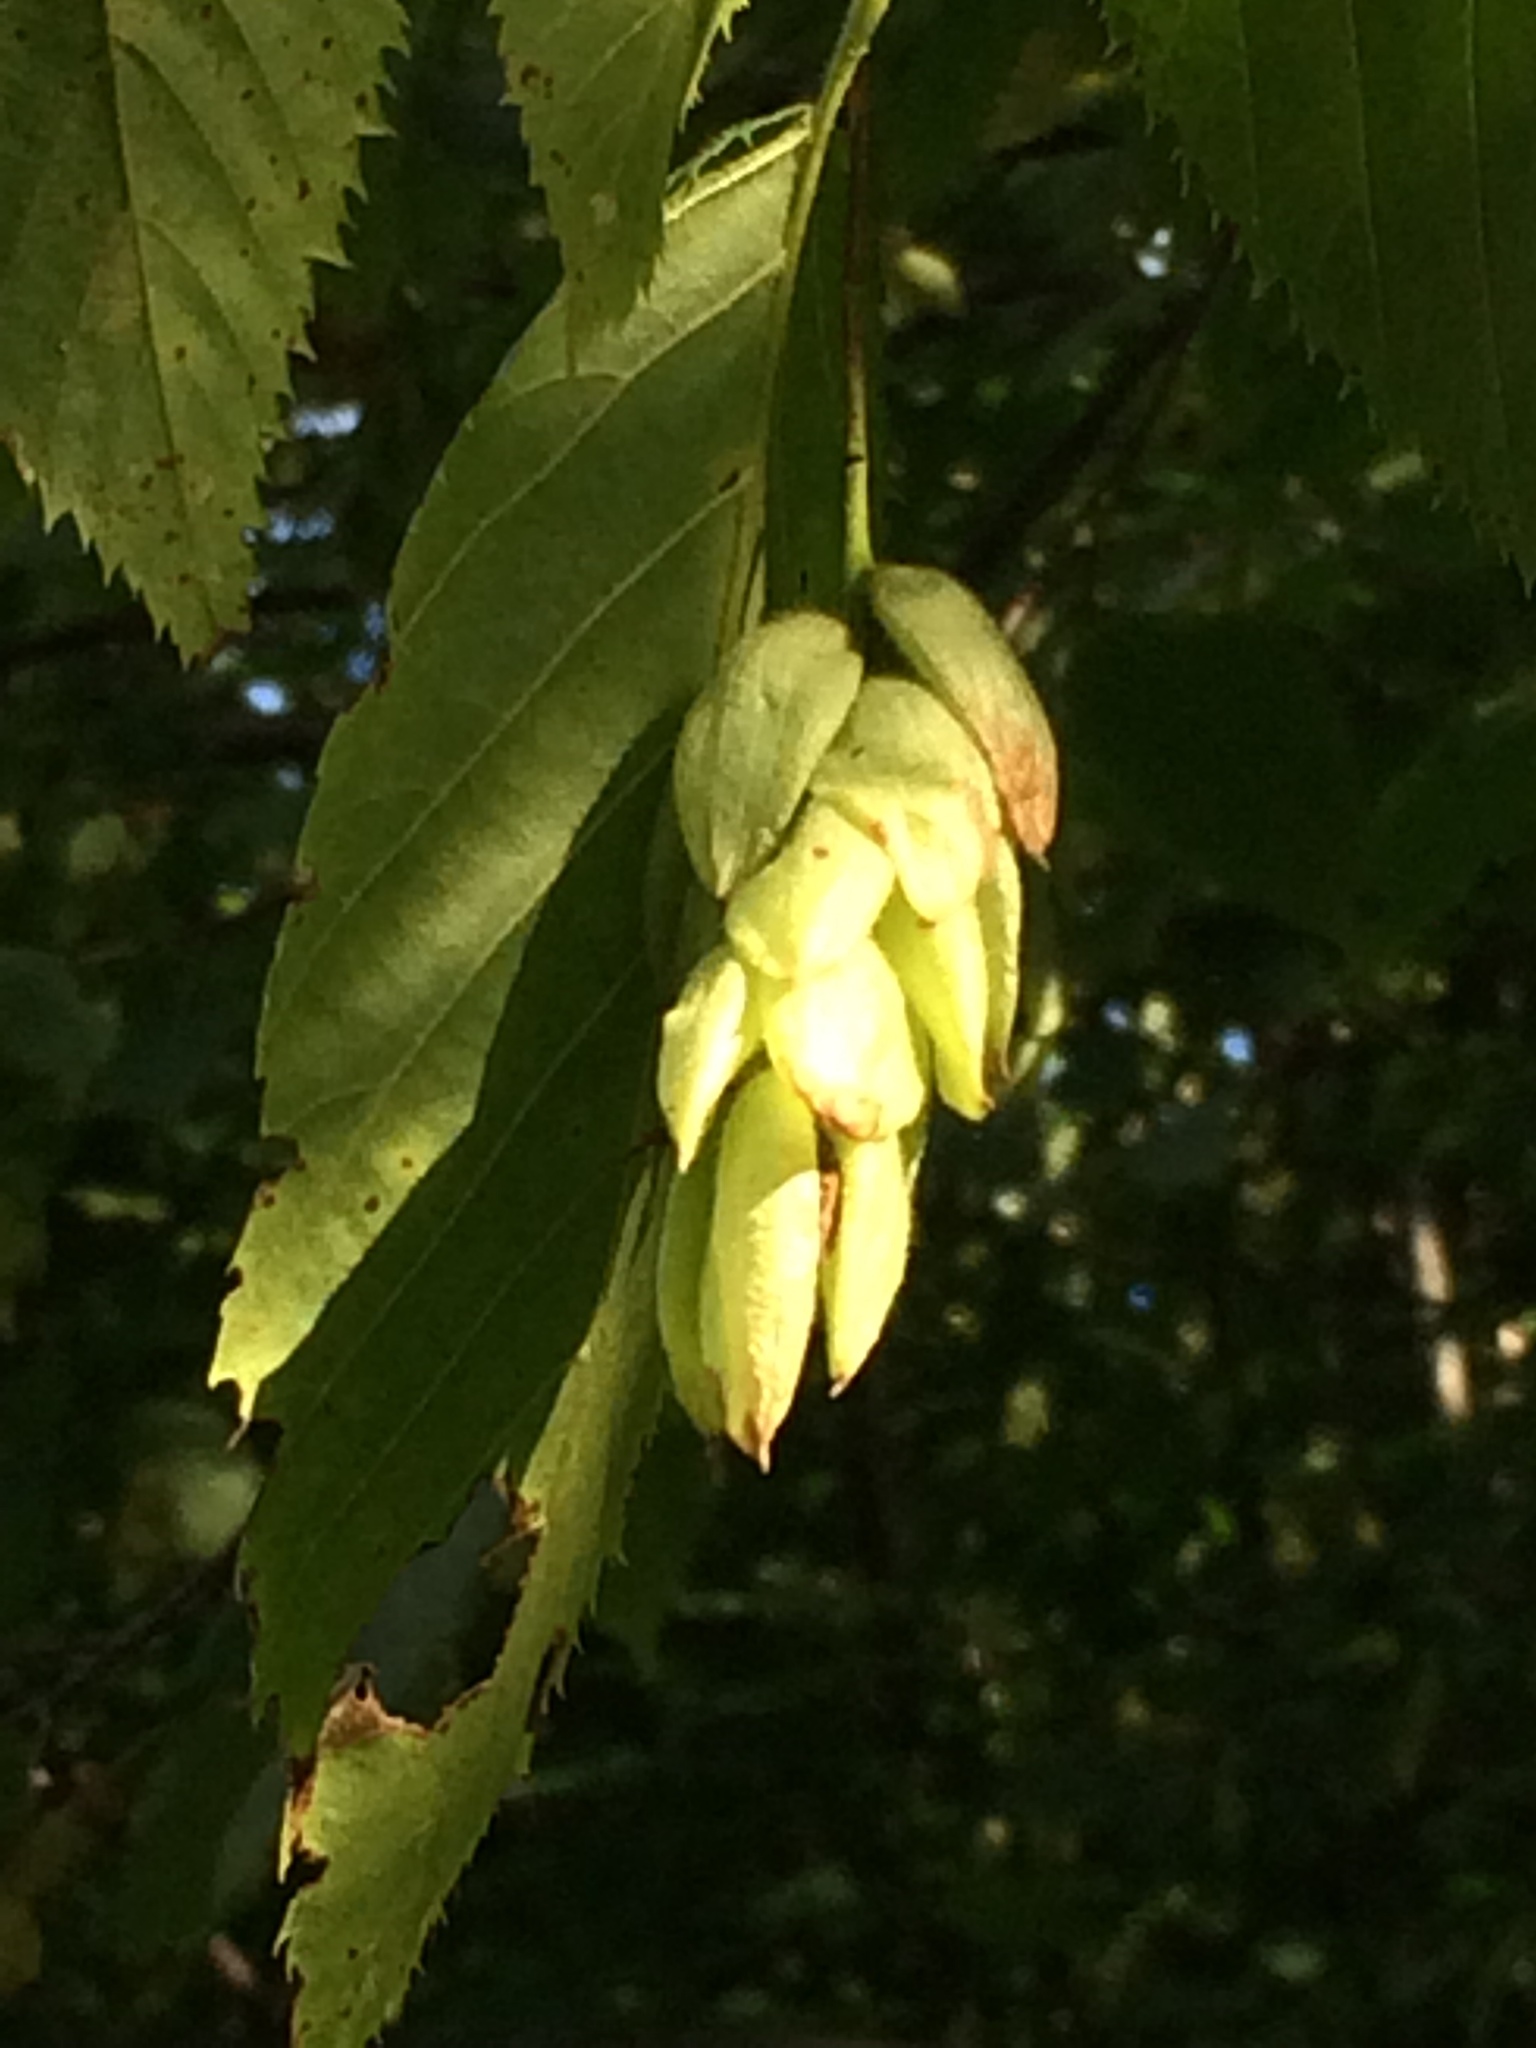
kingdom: Plantae
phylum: Tracheophyta
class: Magnoliopsida
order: Fagales
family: Betulaceae
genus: Ostrya
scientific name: Ostrya virginiana
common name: Ironwood
